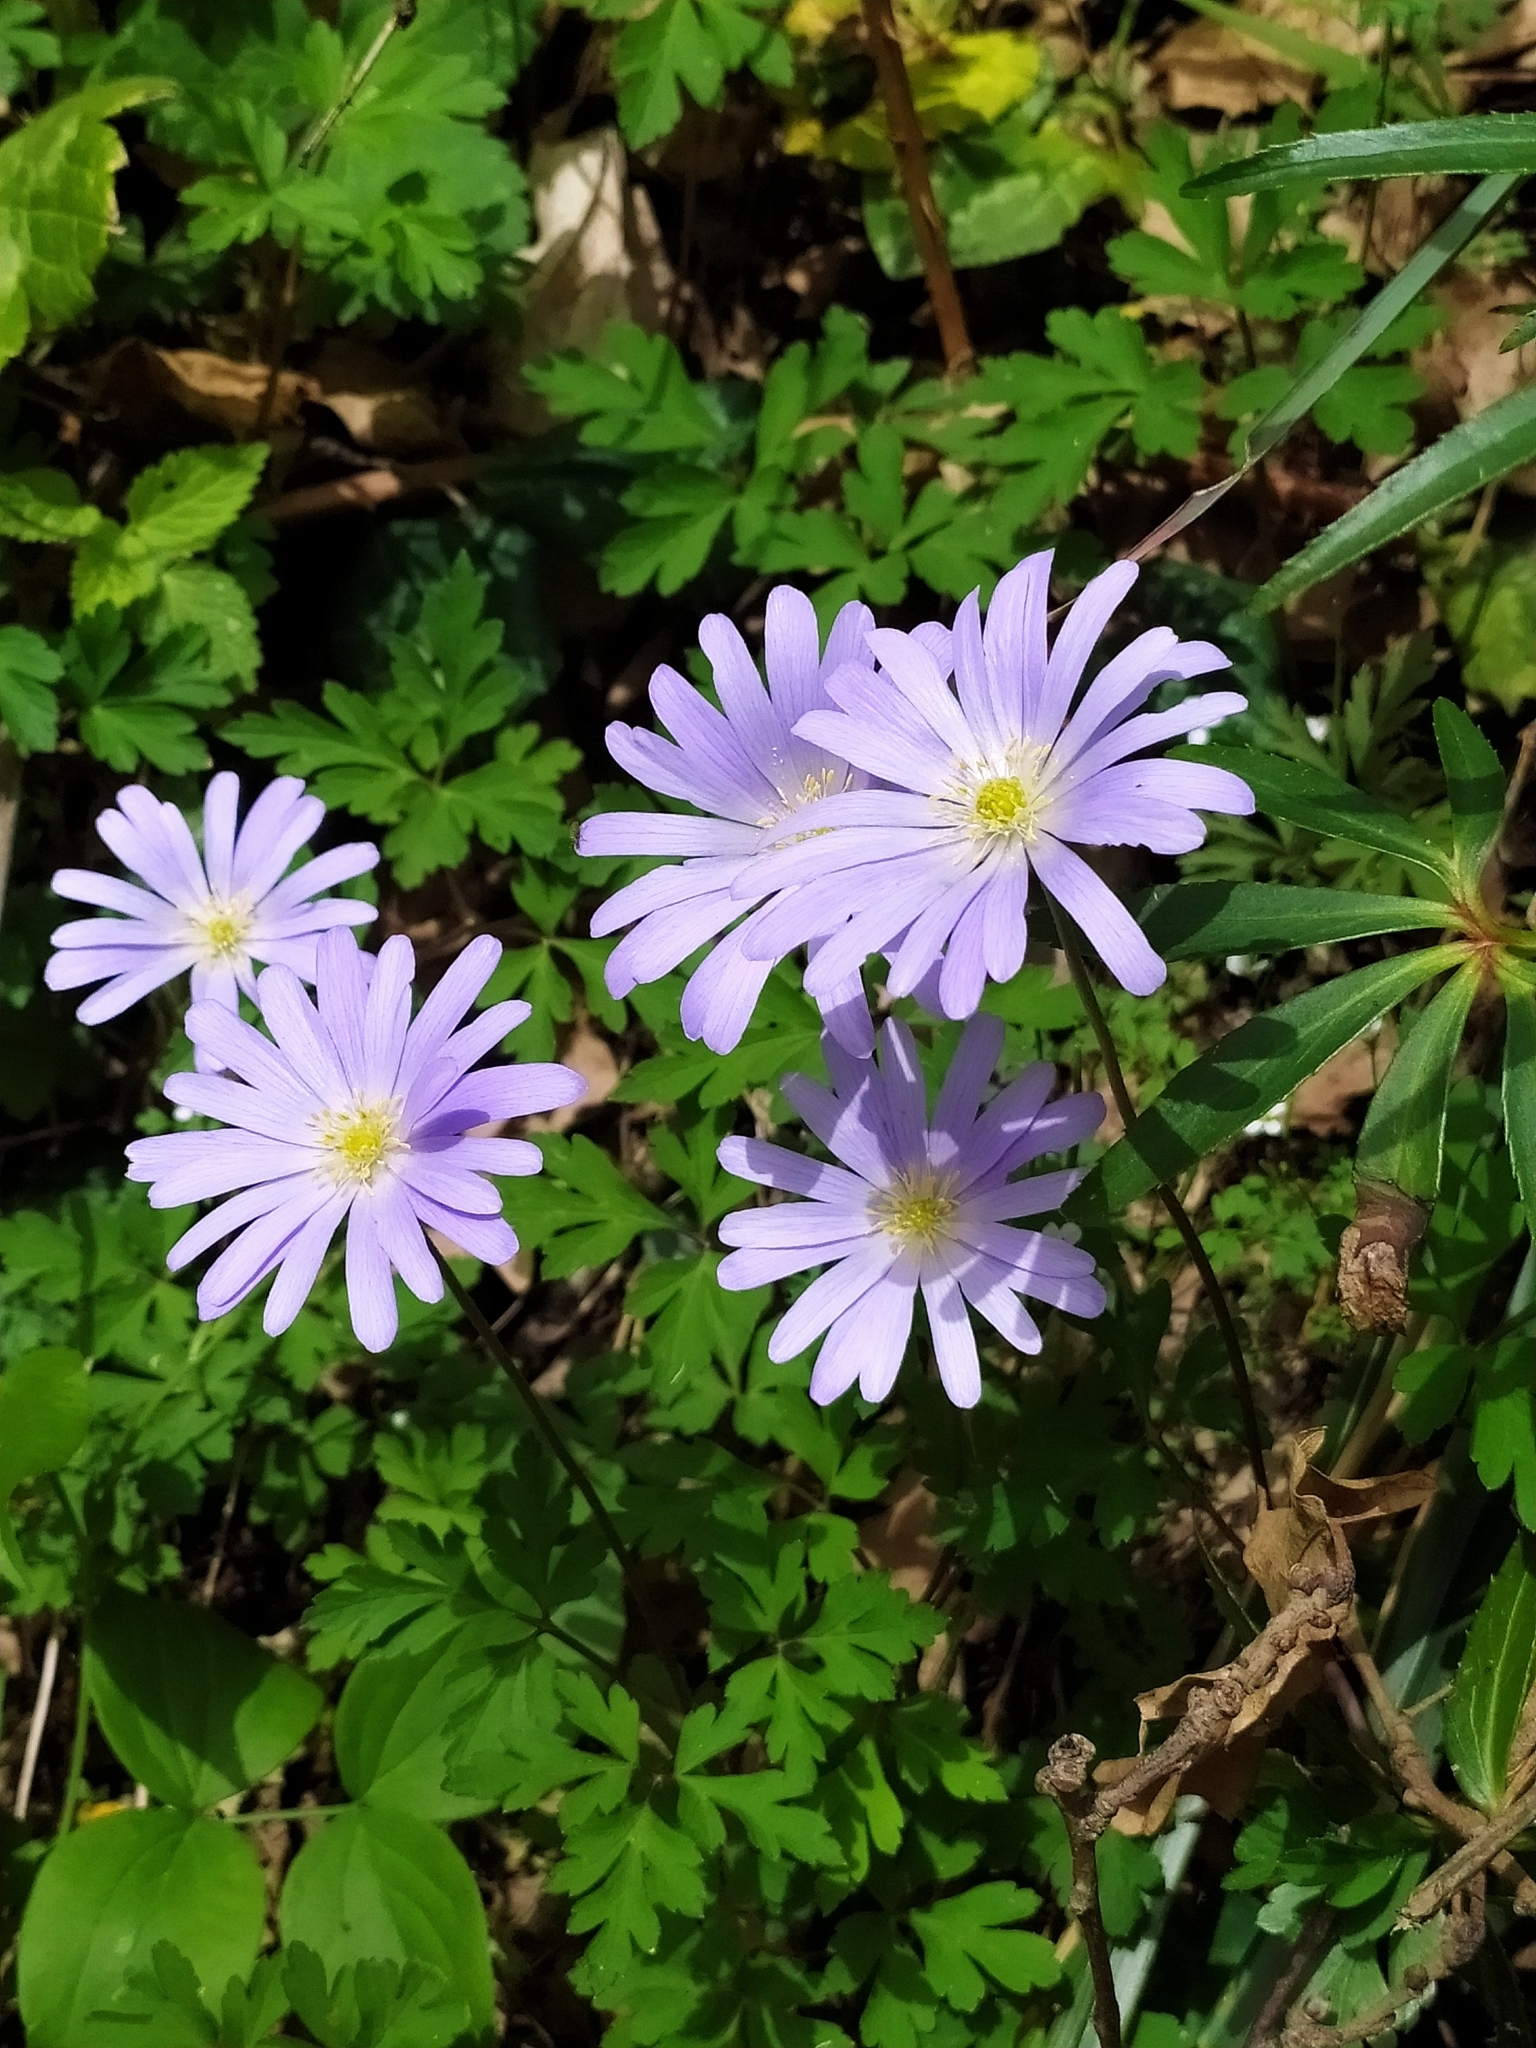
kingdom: Plantae
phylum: Tracheophyta
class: Magnoliopsida
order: Ranunculales
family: Ranunculaceae
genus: Anemone
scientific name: Anemone apennina
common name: Blue anemone
